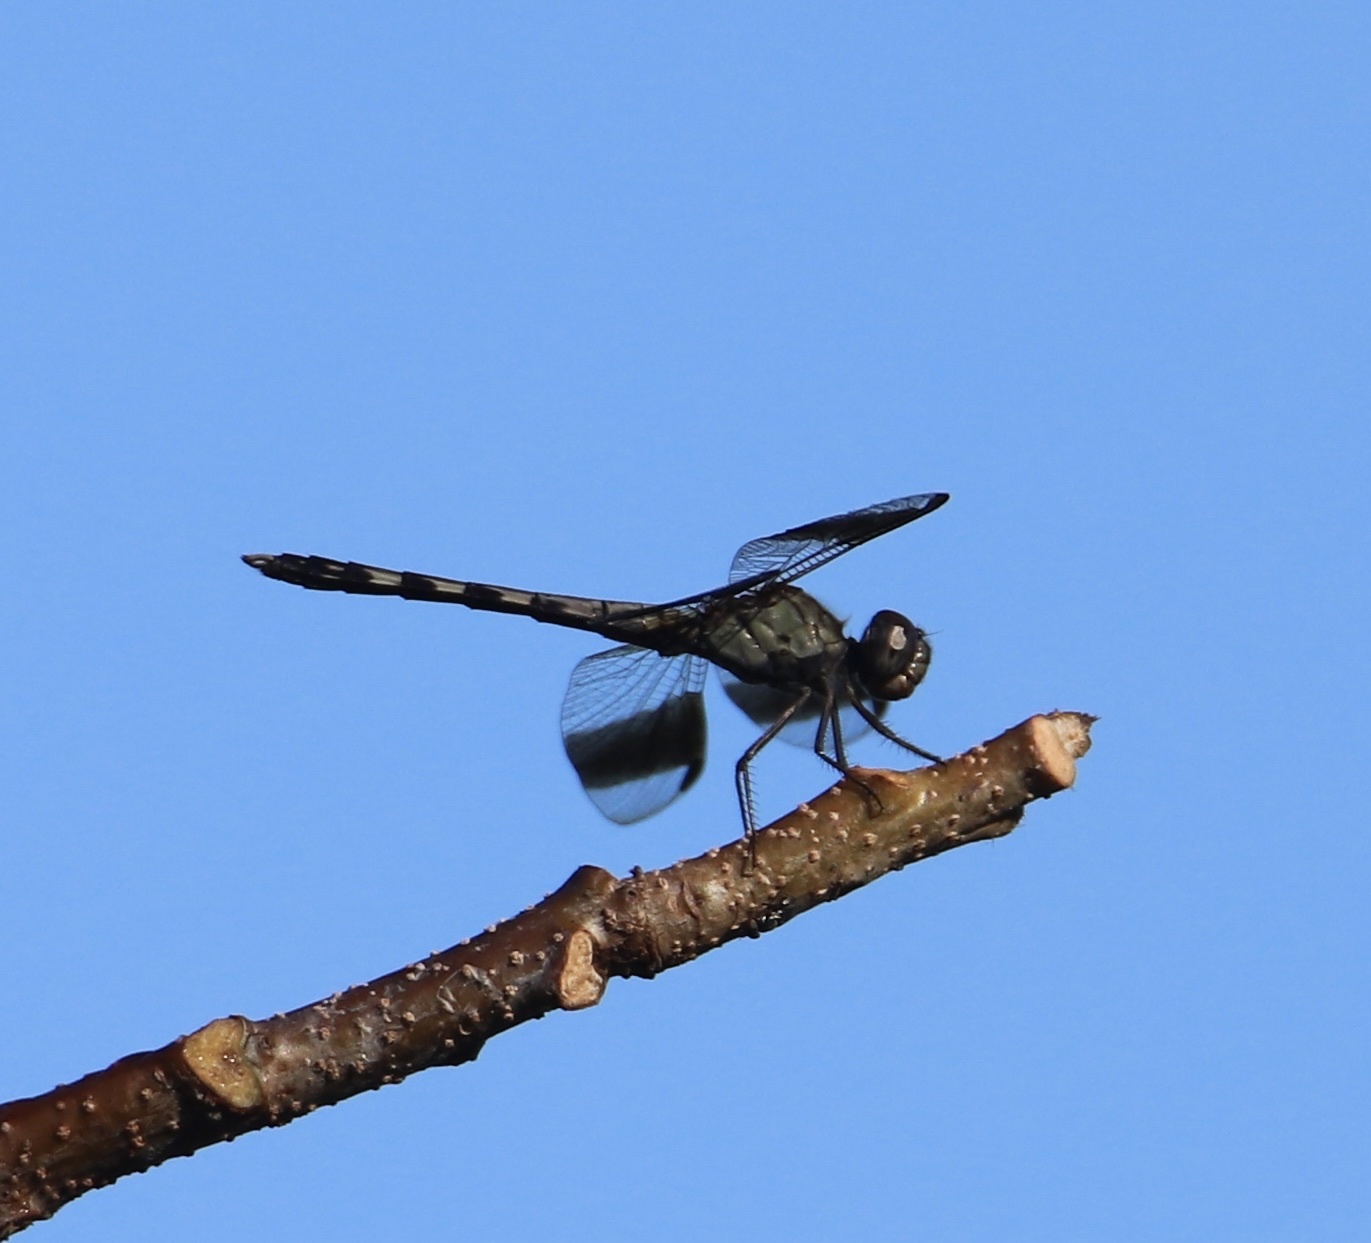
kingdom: Animalia
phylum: Arthropoda
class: Insecta
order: Odonata
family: Libellulidae
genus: Erythrodiplax
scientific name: Erythrodiplax umbrata
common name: Band-winged dragonlet
